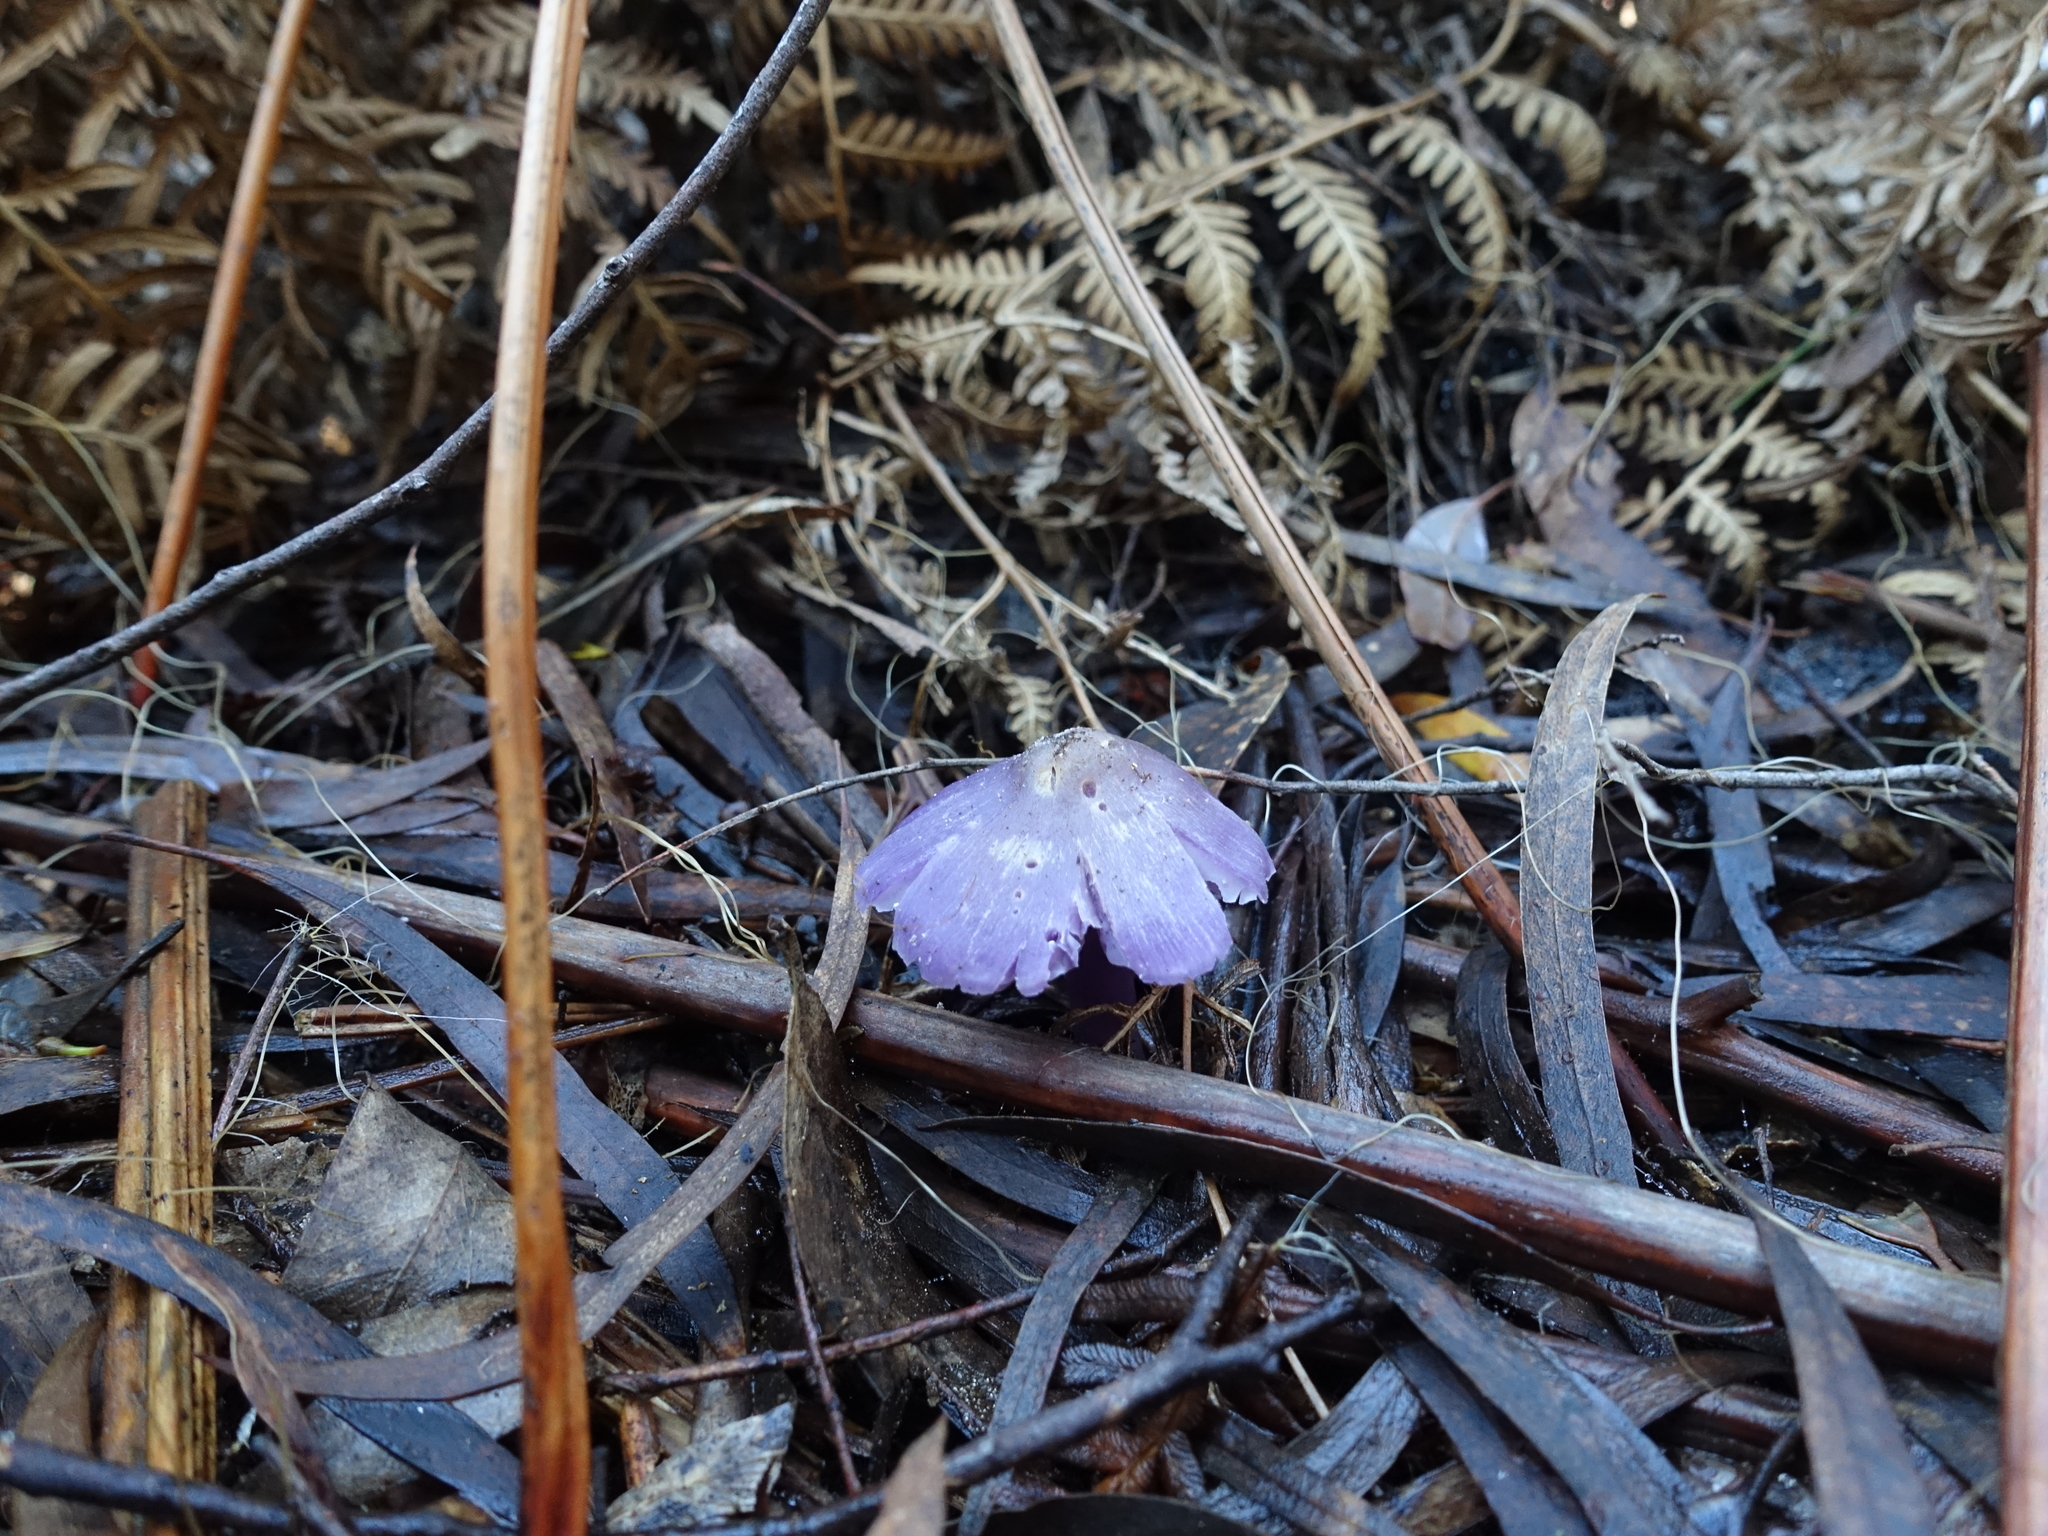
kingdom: Fungi
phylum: Basidiomycota
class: Agaricomycetes
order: Agaricales
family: Hygrophoraceae
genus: Porpolomopsis
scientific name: Porpolomopsis lewelliniae
